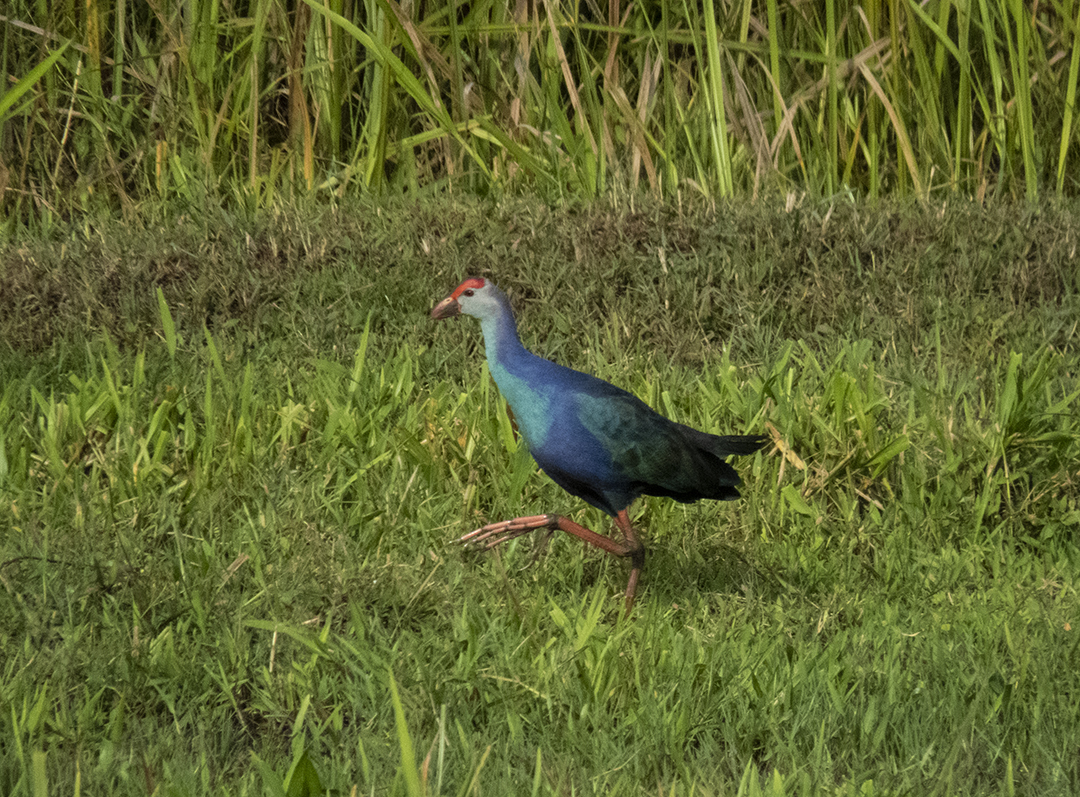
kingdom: Animalia
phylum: Chordata
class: Aves
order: Gruiformes
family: Rallidae
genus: Porphyrio
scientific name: Porphyrio porphyrio
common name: Purple swamphen
